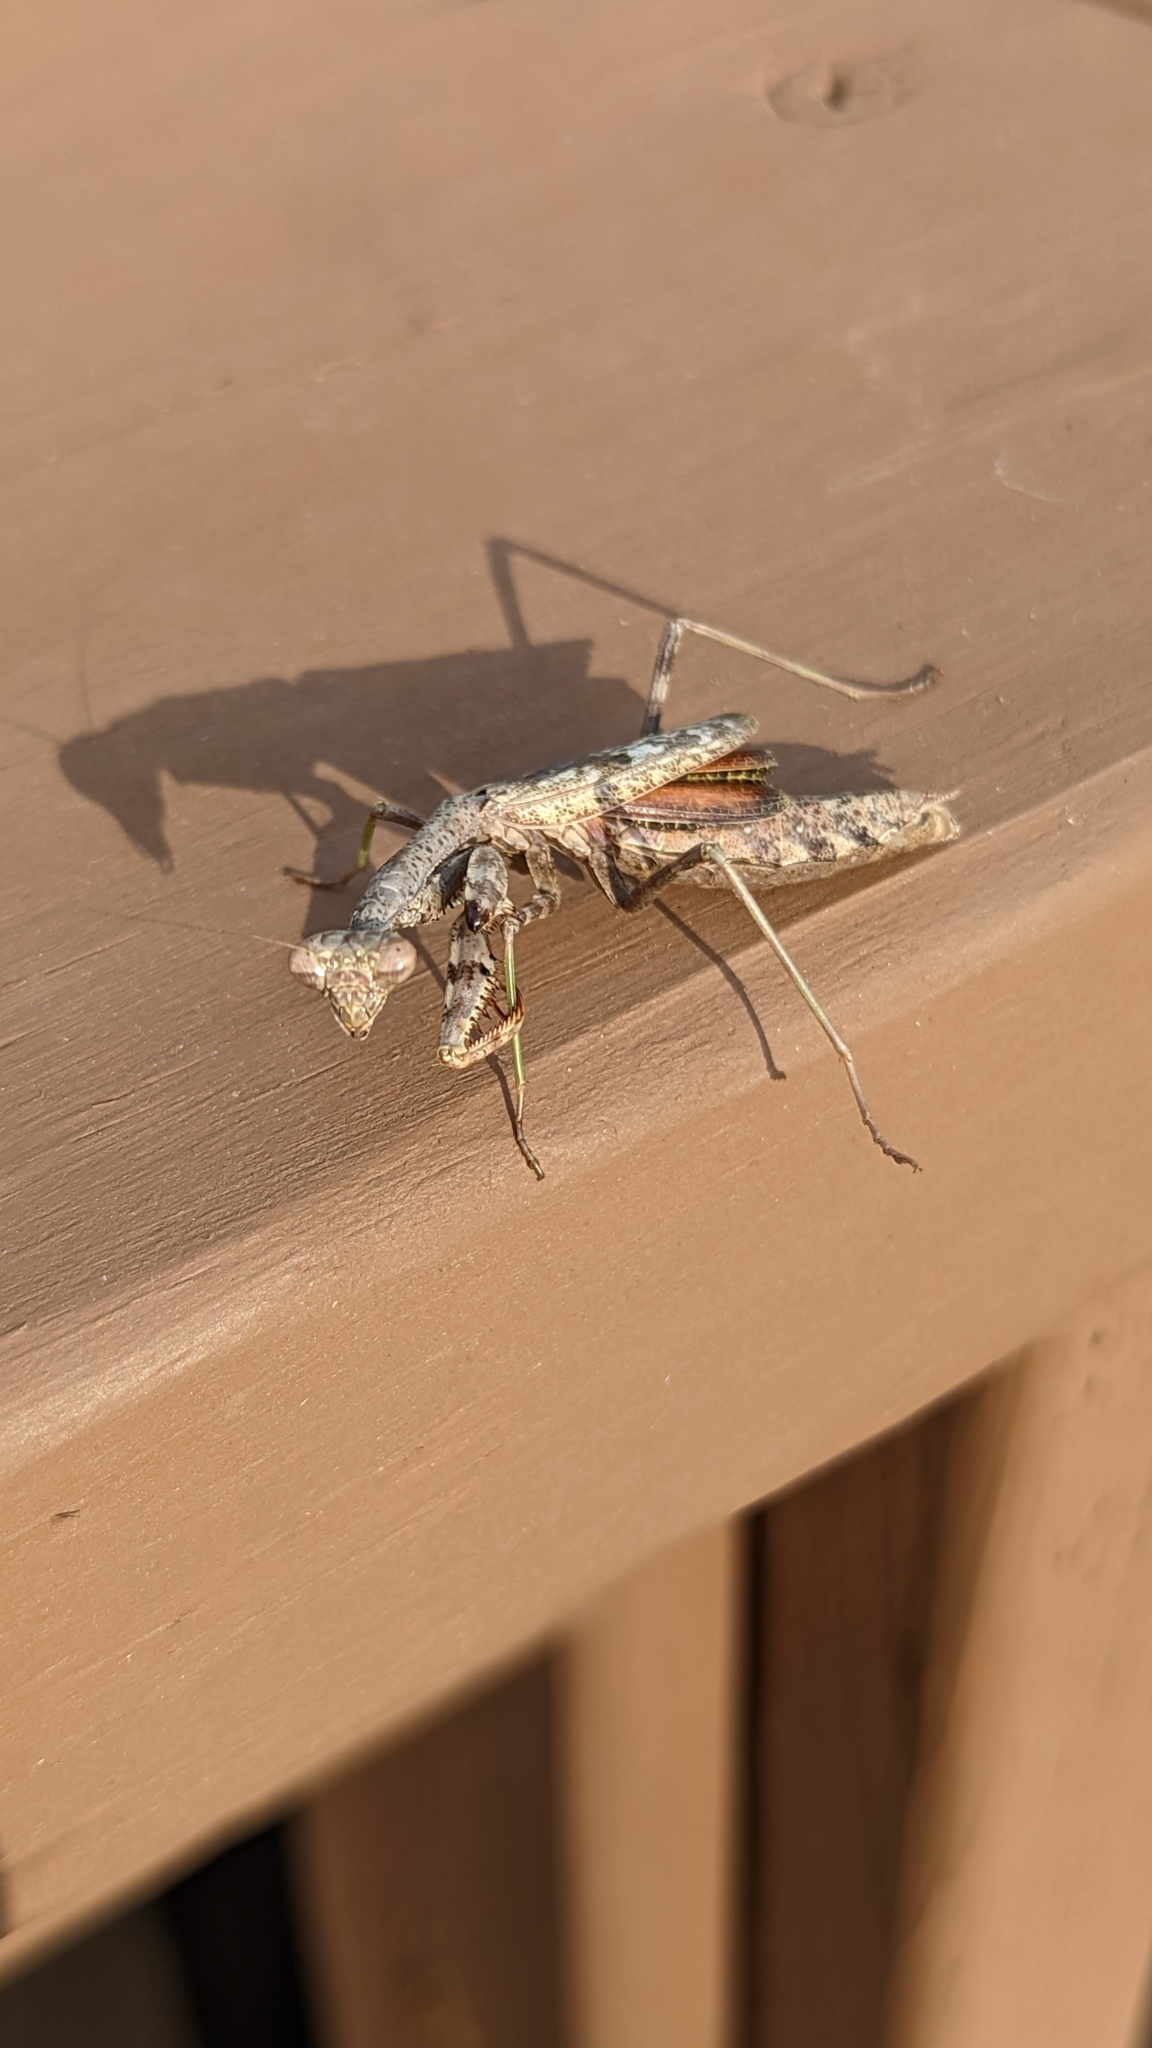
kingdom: Animalia
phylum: Arthropoda
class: Insecta
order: Mantodea
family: Mantidae
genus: Stagmomantis
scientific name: Stagmomantis carolina
